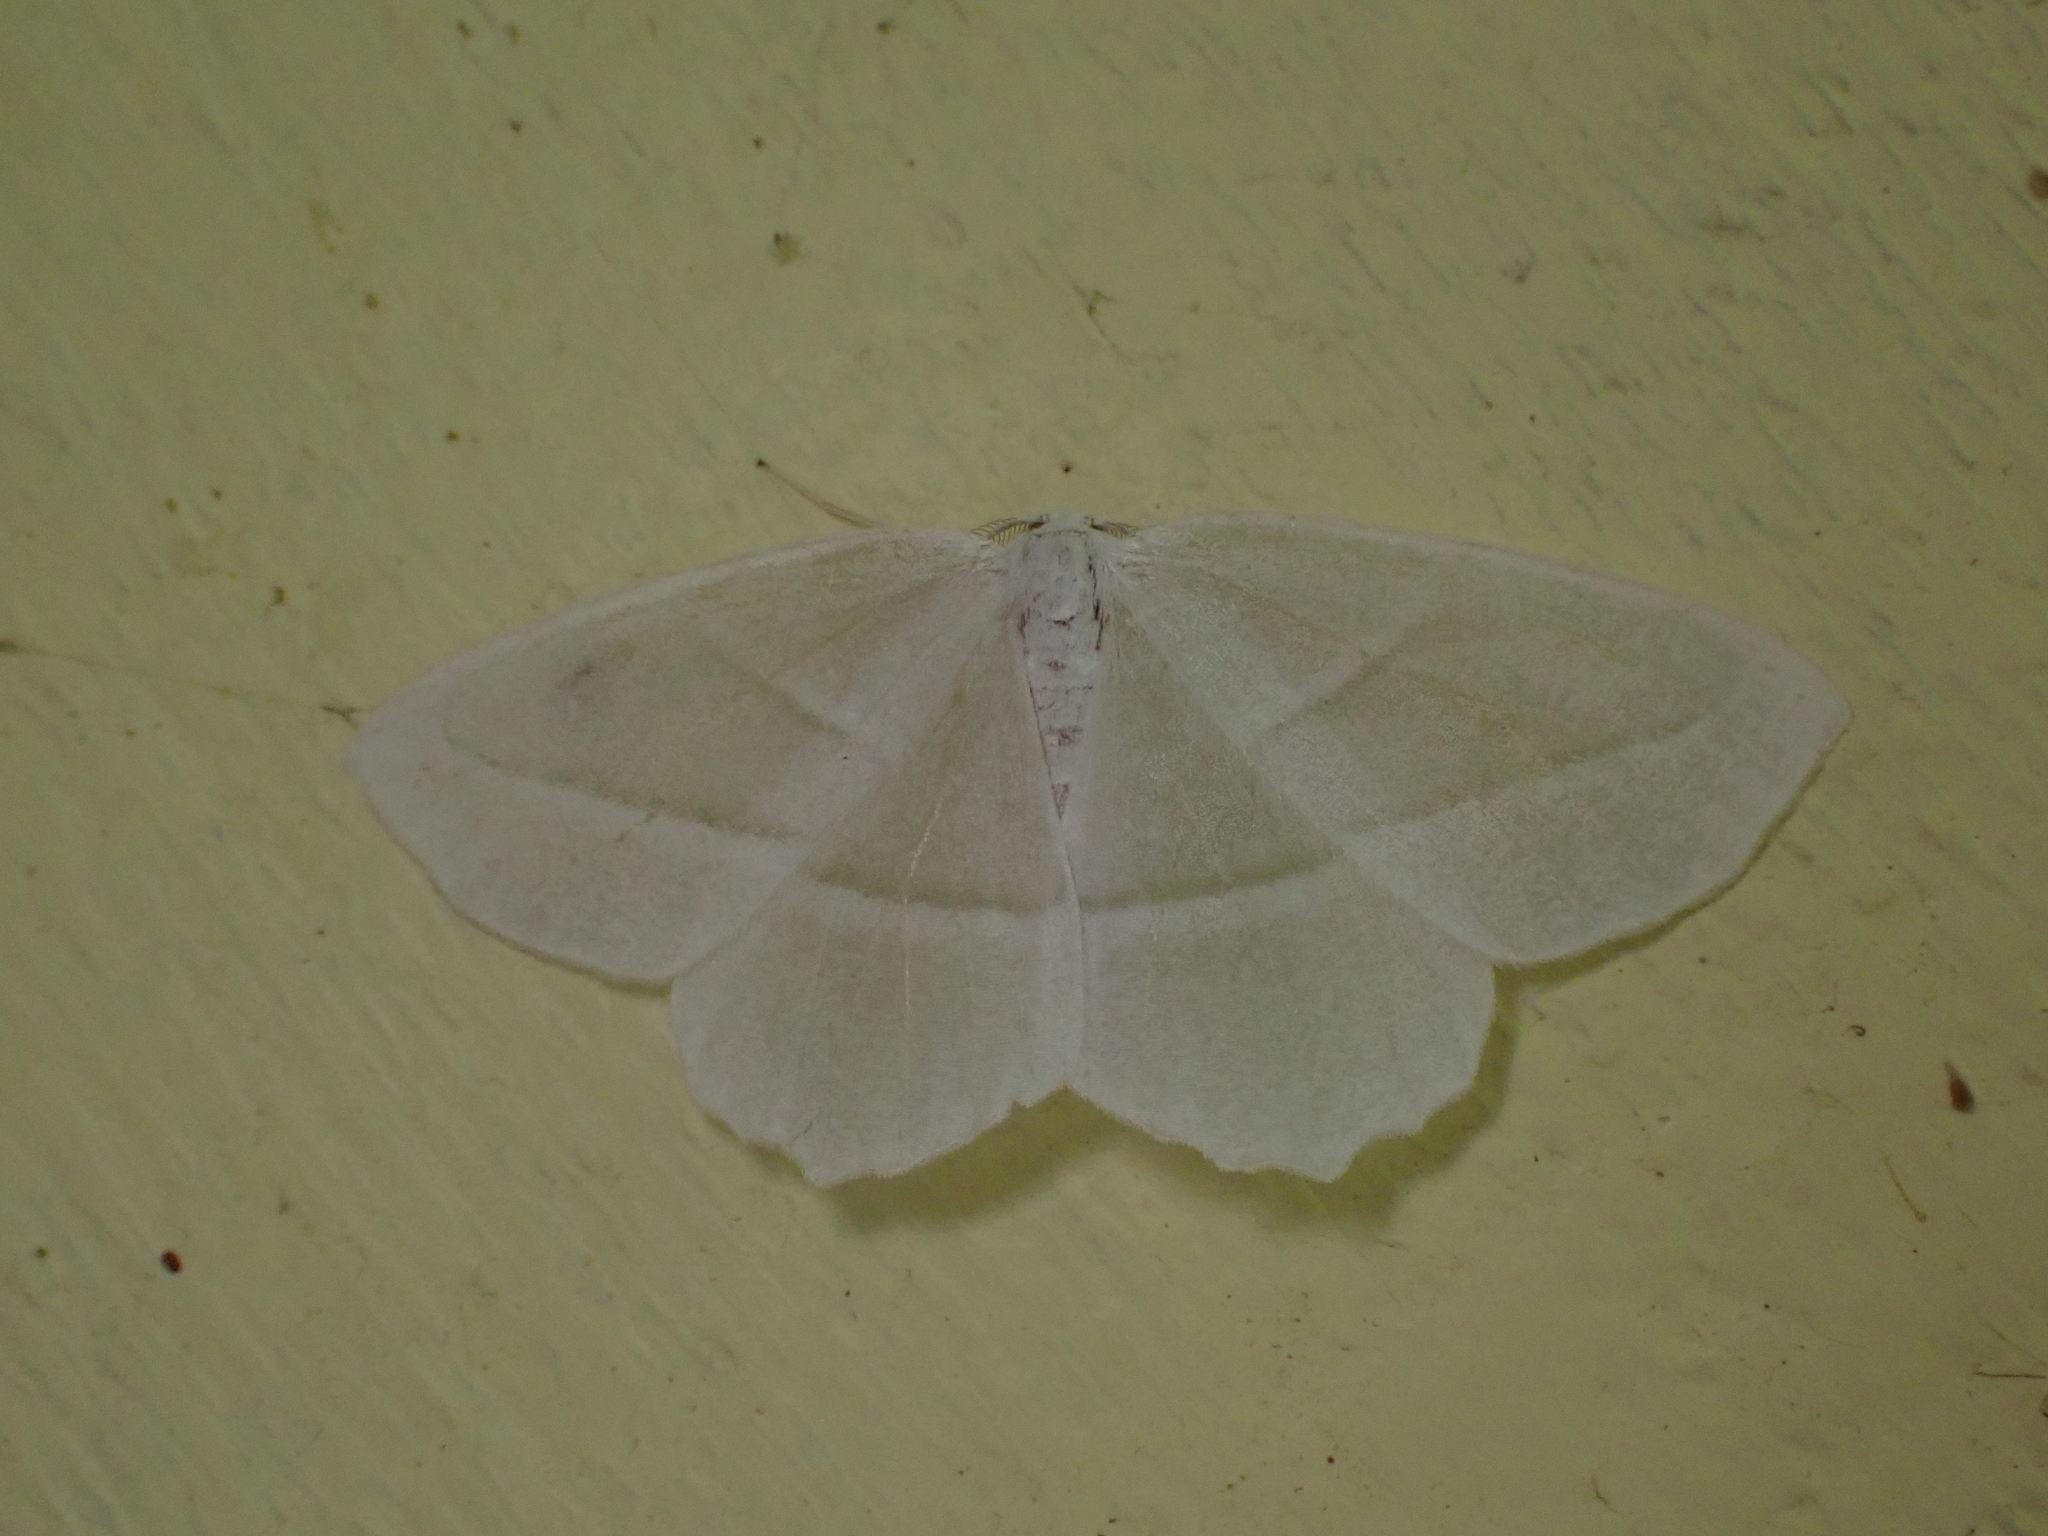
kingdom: Animalia
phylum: Arthropoda
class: Insecta
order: Lepidoptera
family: Geometridae
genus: Campaea
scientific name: Campaea perlata
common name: Fringed looper
